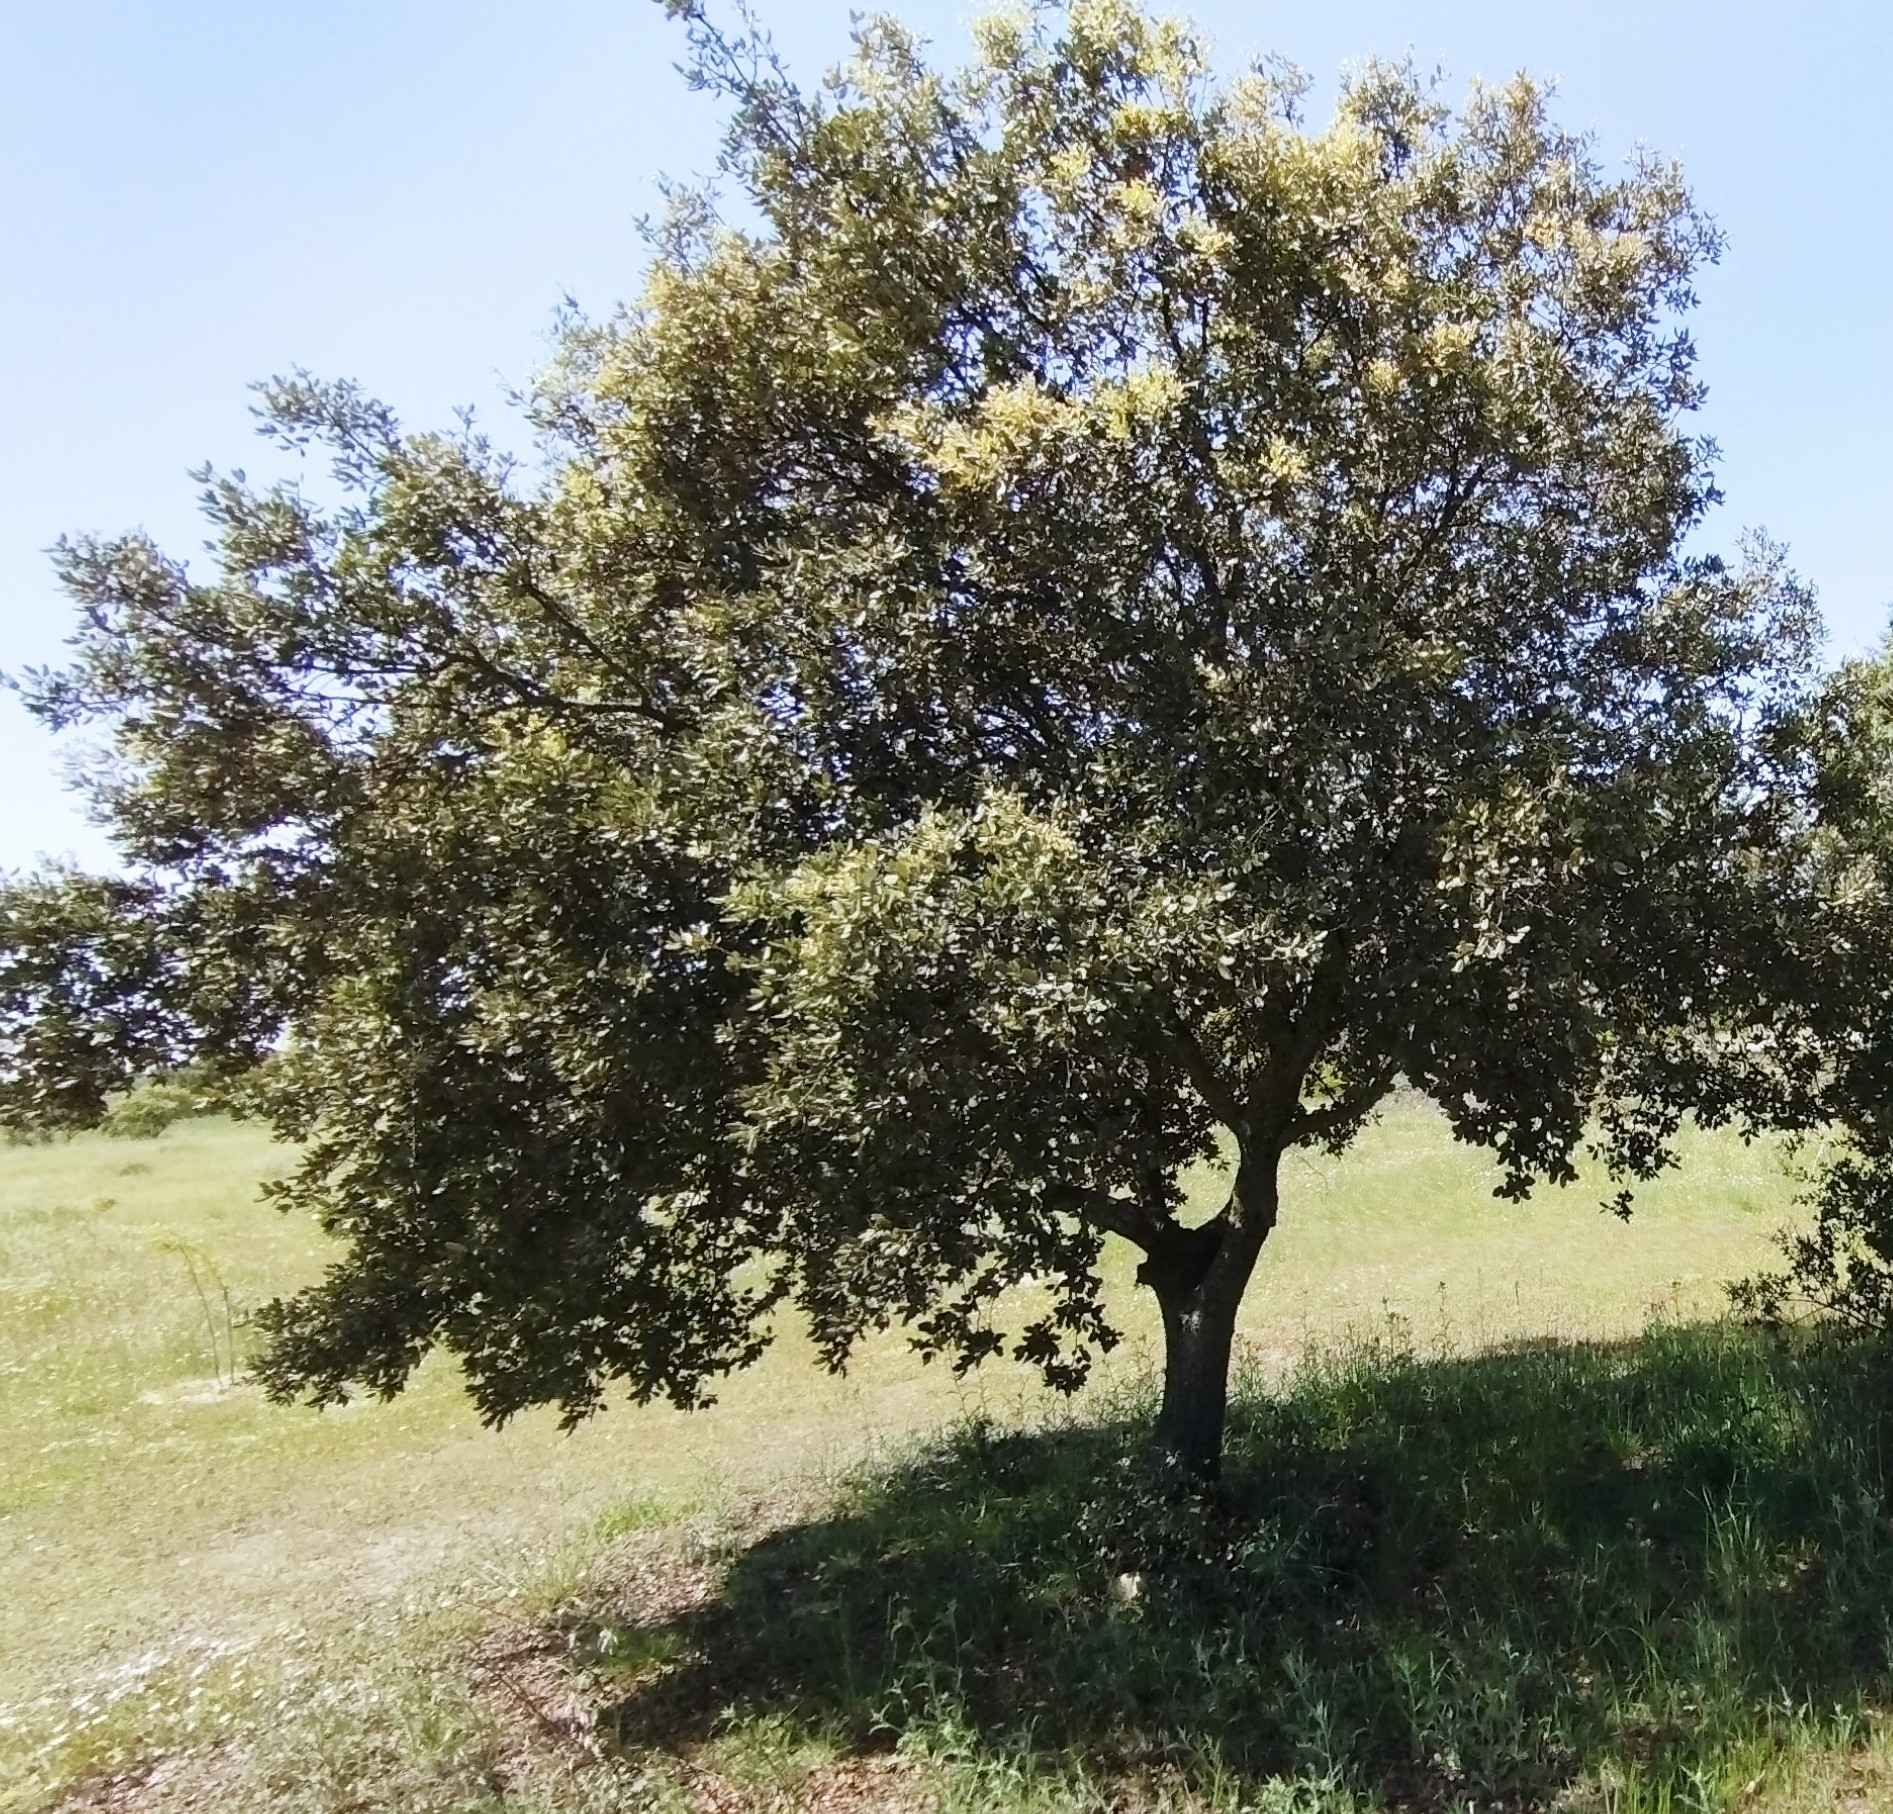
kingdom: Plantae
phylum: Tracheophyta
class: Magnoliopsida
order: Fagales
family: Fagaceae
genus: Quercus
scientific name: Quercus rotundifolia
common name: Holm oak
